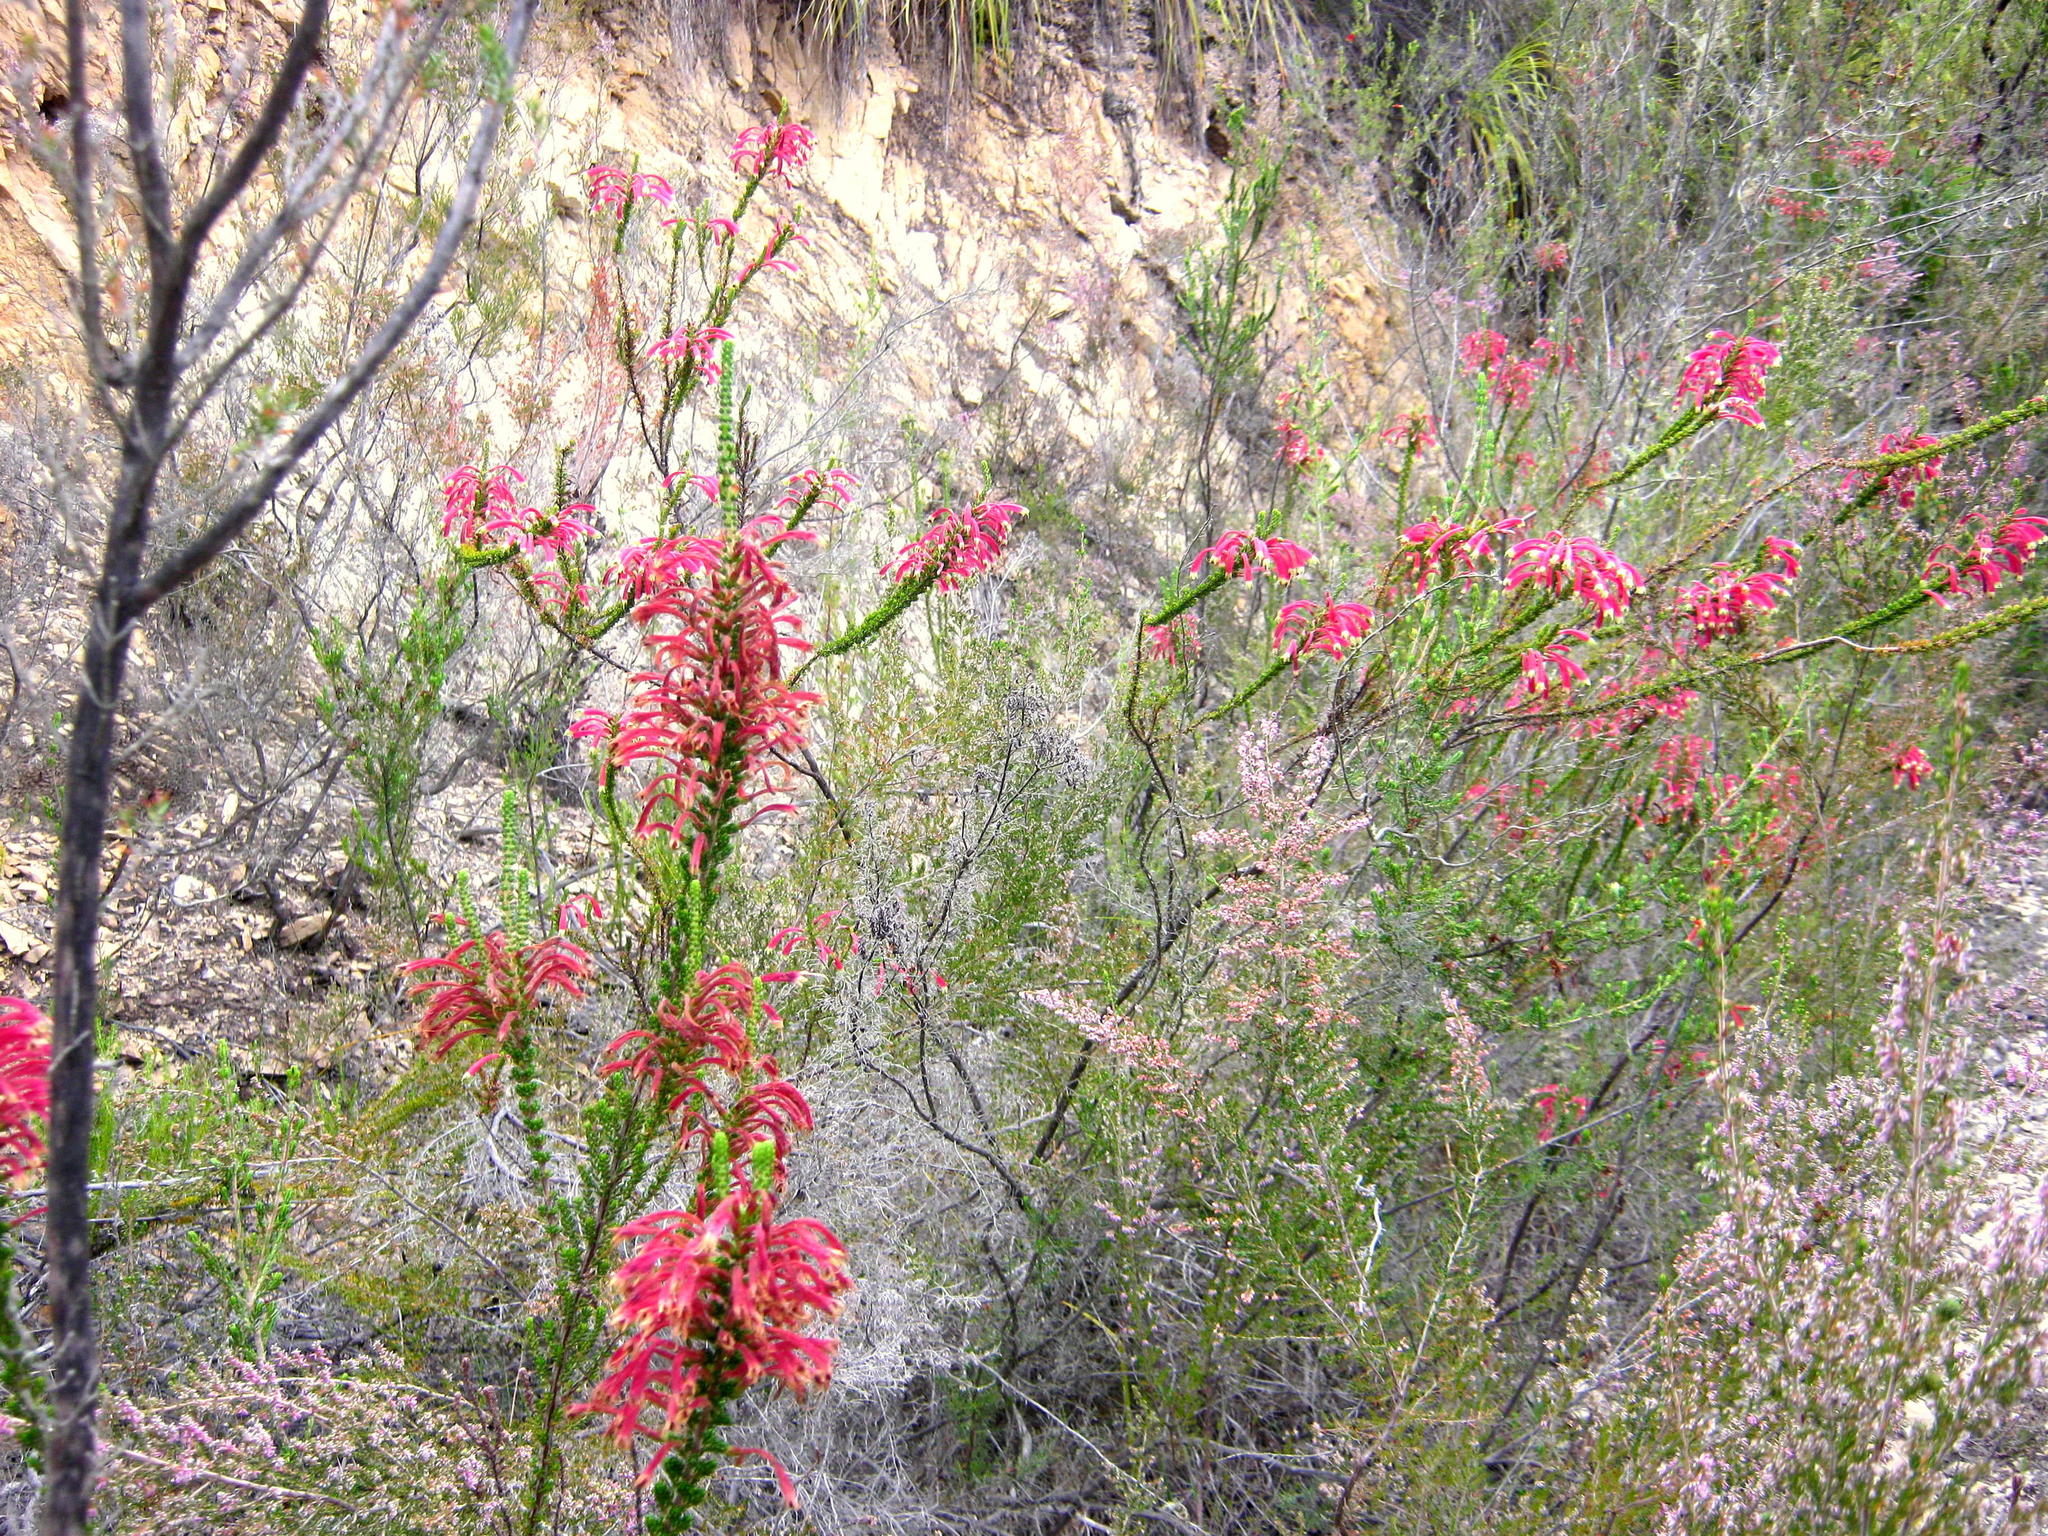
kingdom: Plantae
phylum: Tracheophyta
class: Magnoliopsida
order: Ericales
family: Ericaceae
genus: Erica
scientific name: Erica densifolia
